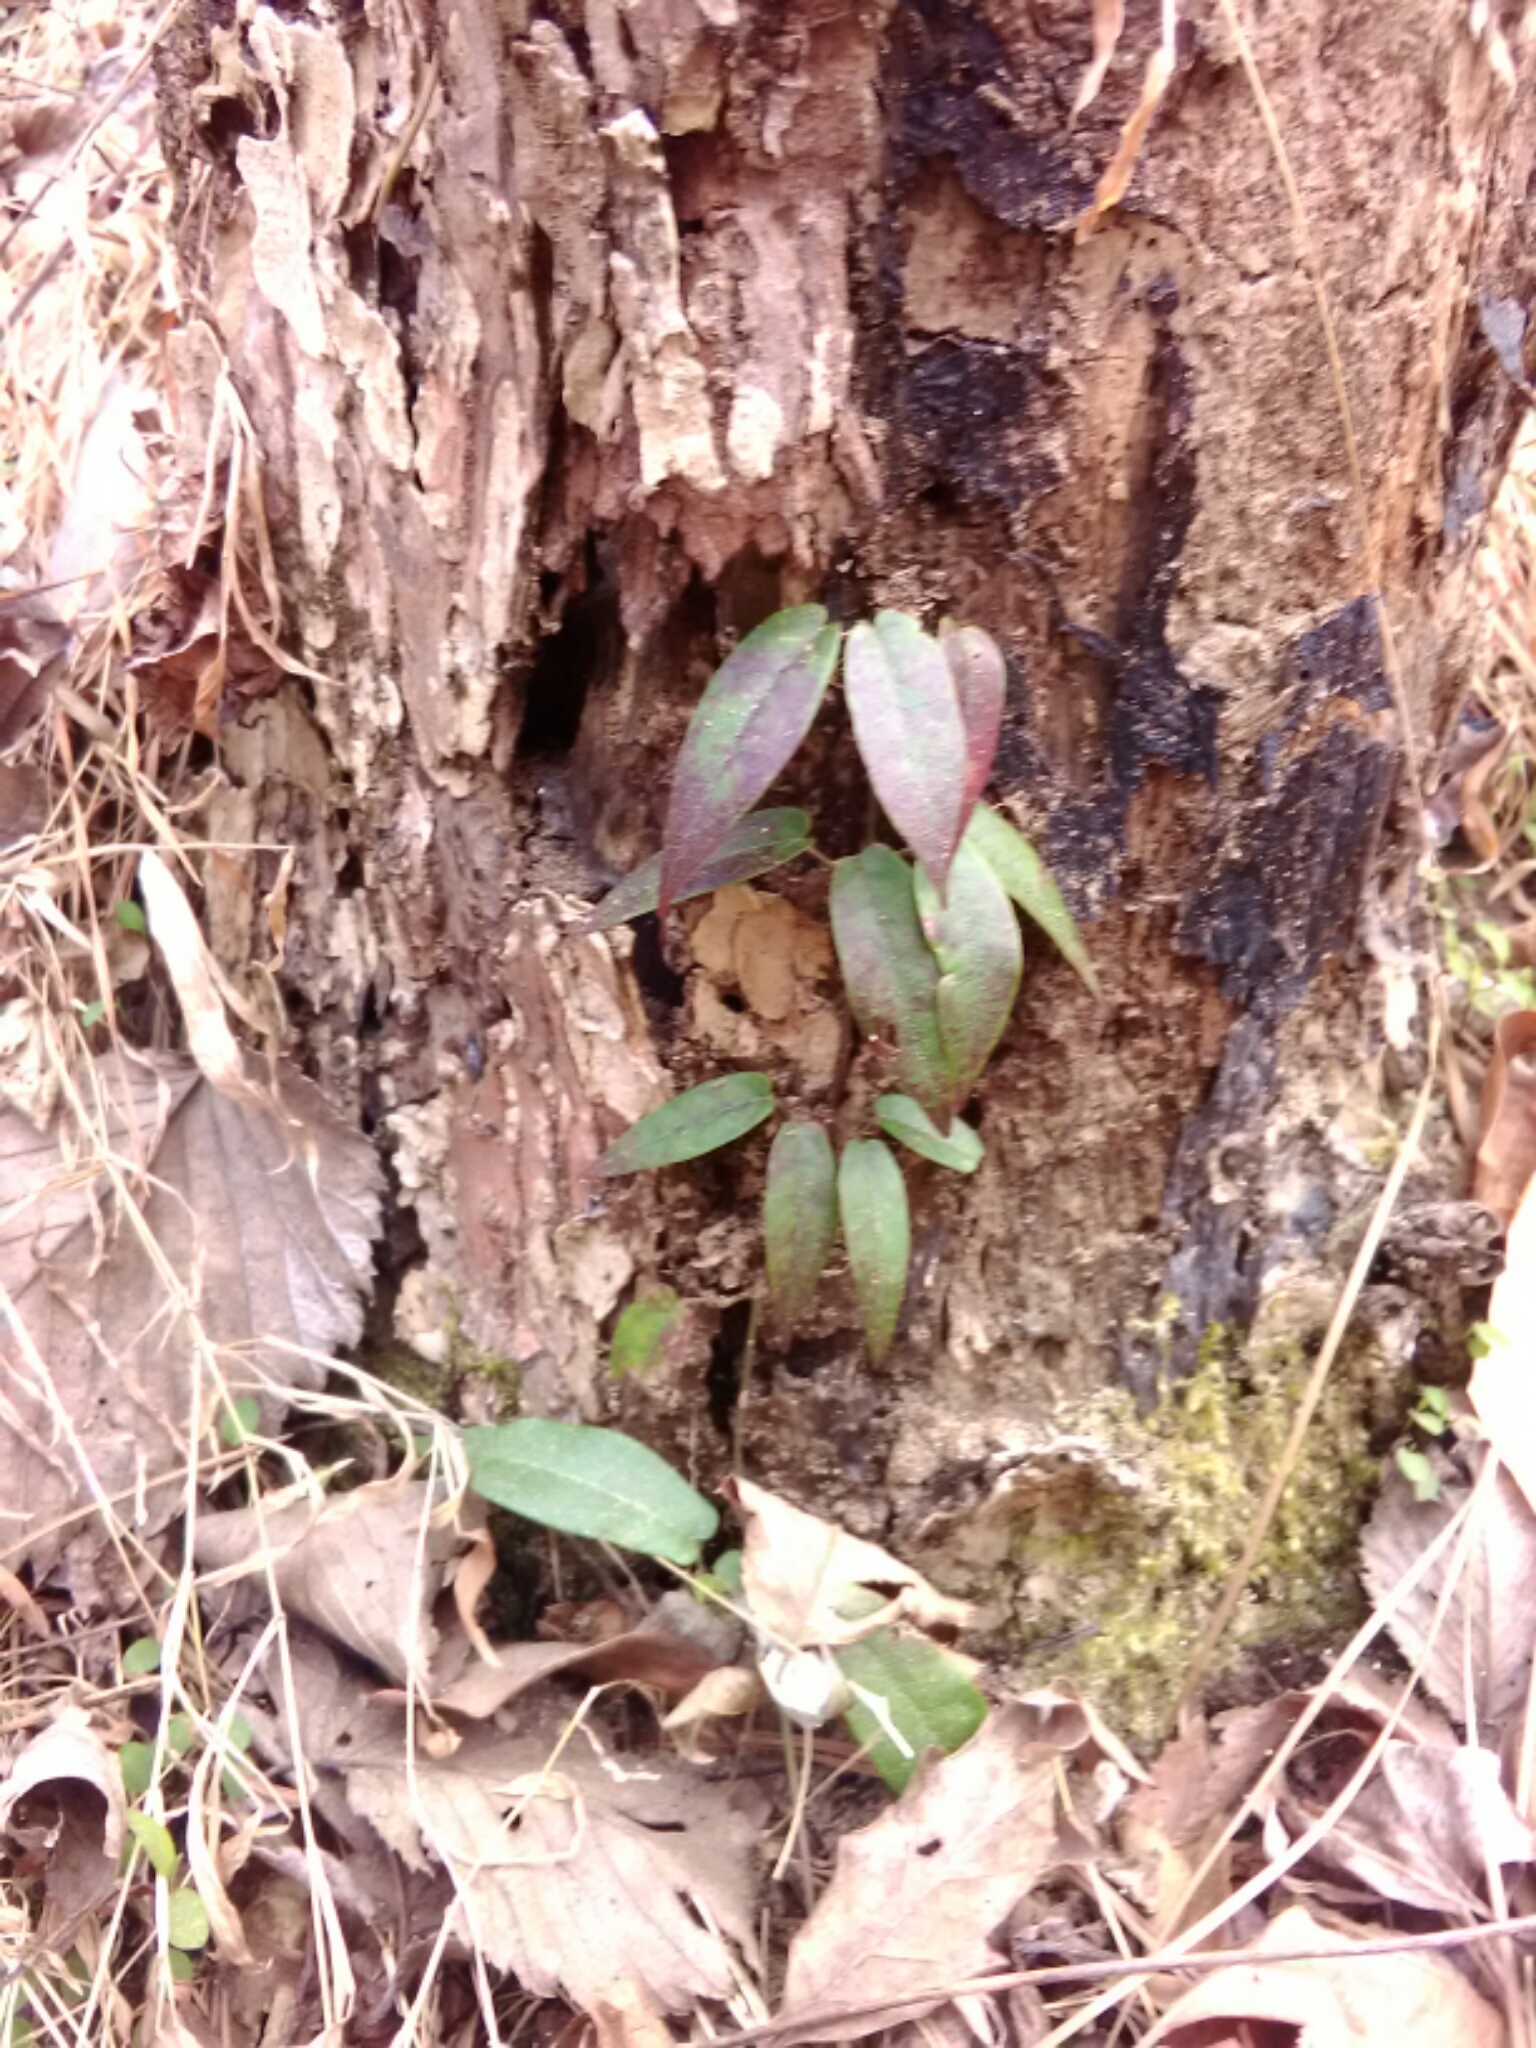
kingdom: Plantae
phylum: Tracheophyta
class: Magnoliopsida
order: Lamiales
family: Bignoniaceae
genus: Bignonia
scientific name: Bignonia capreolata
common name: Crossvine
